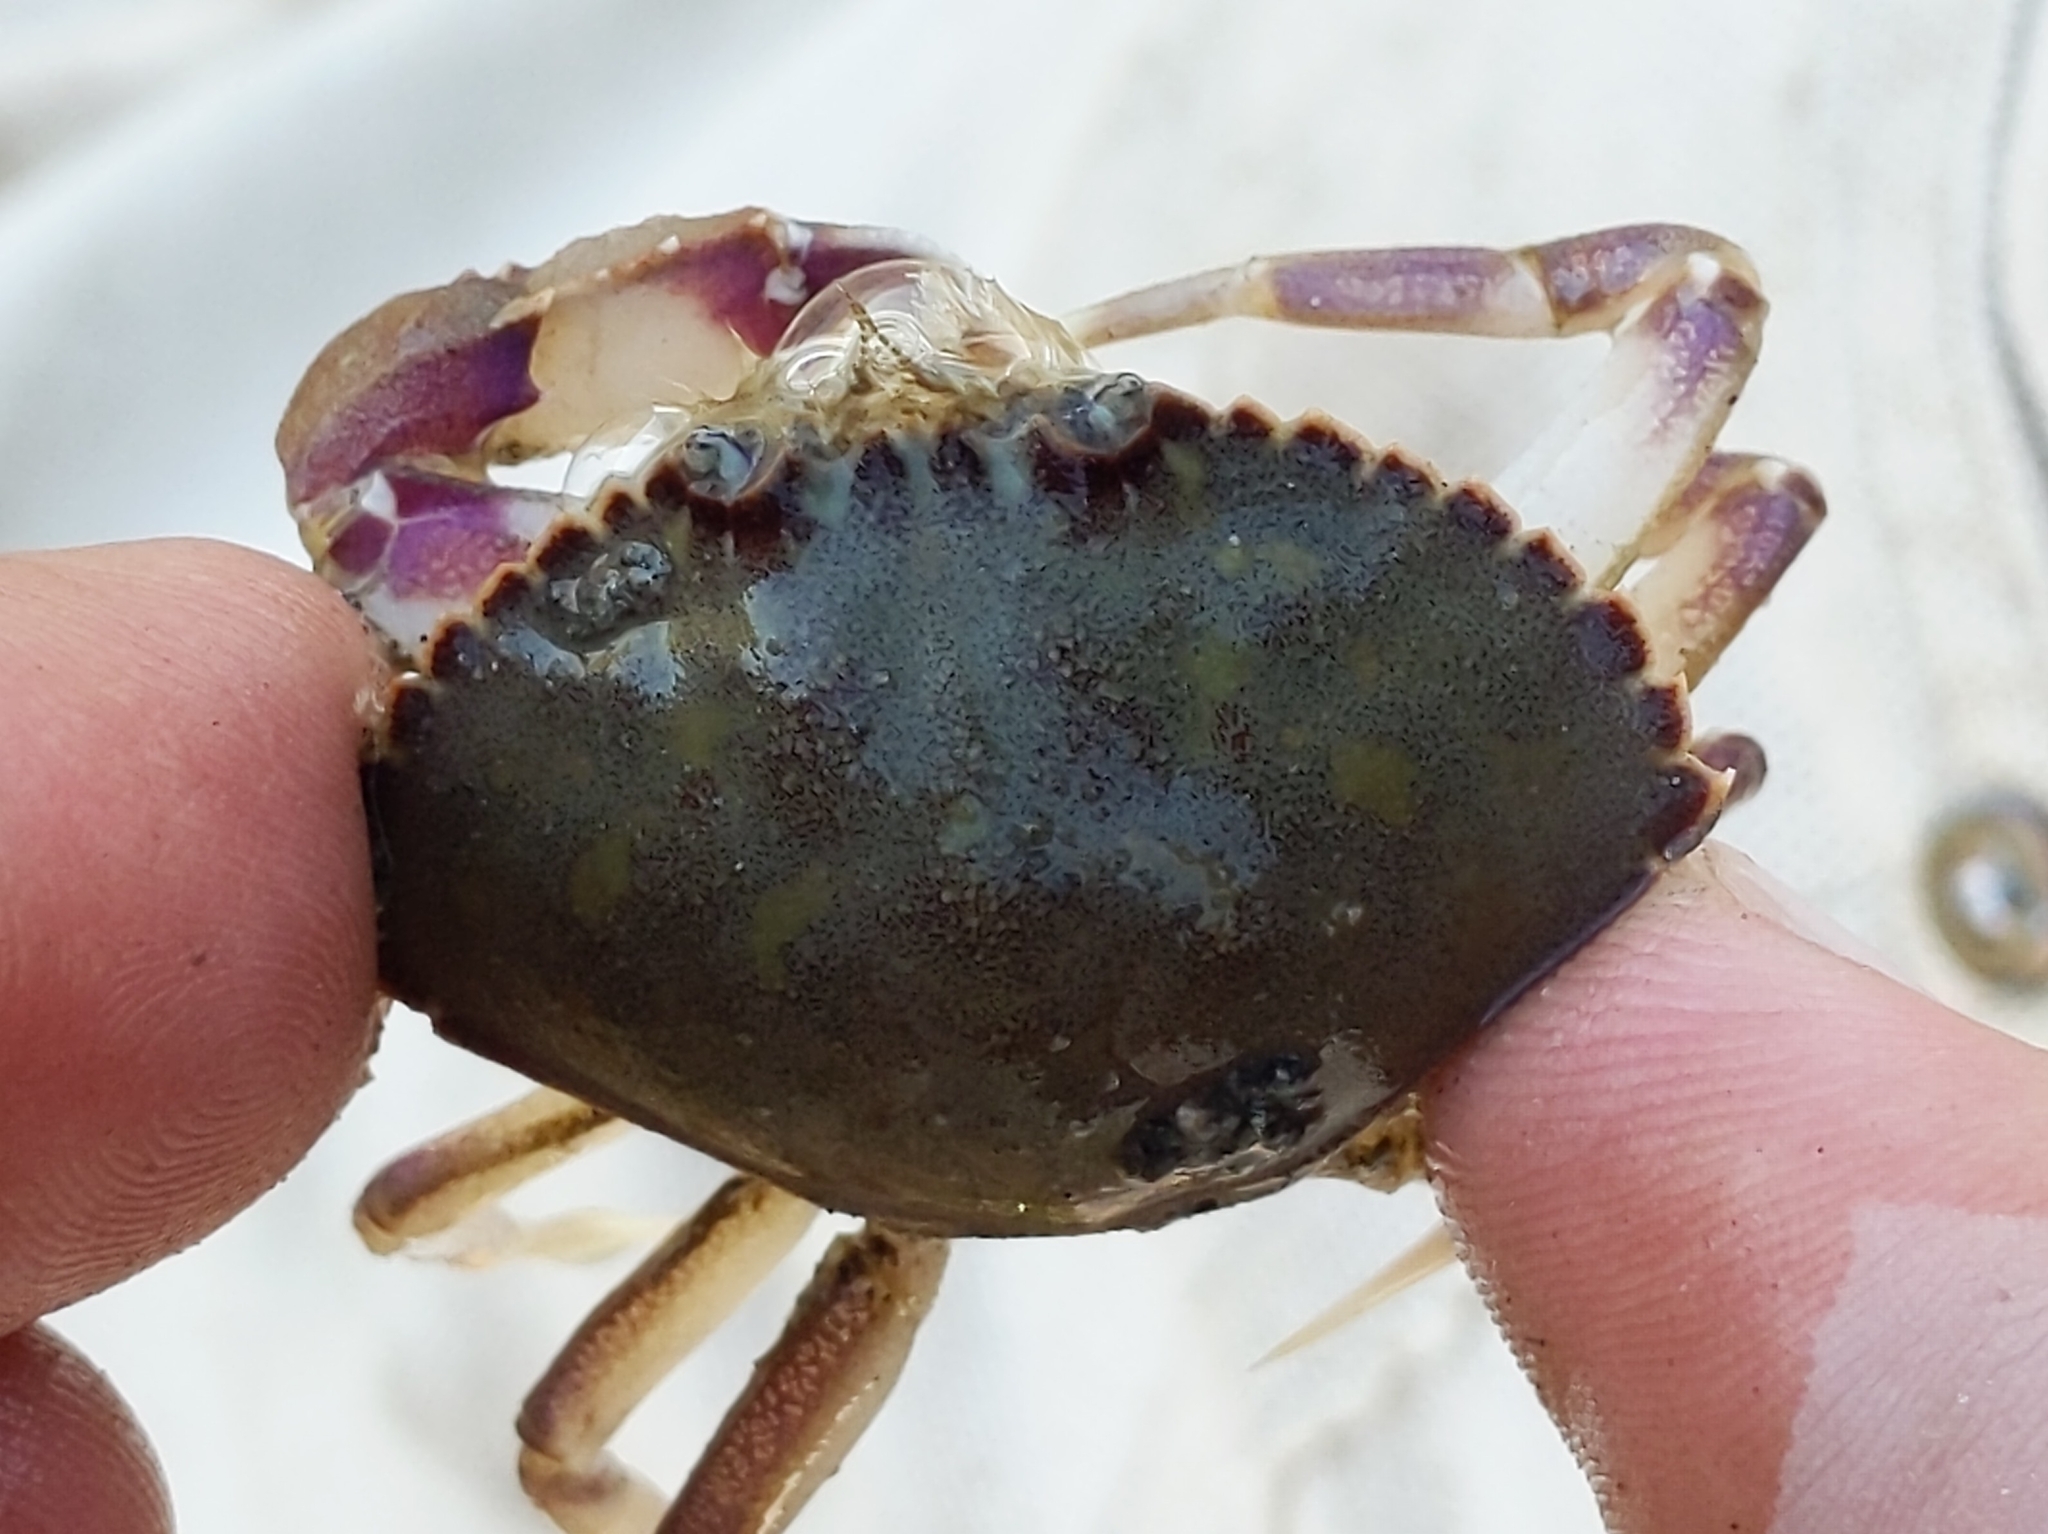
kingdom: Animalia
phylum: Arthropoda
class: Malacostraca
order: Decapoda
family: Cancridae
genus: Metacarcinus
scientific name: Metacarcinus gracilis
